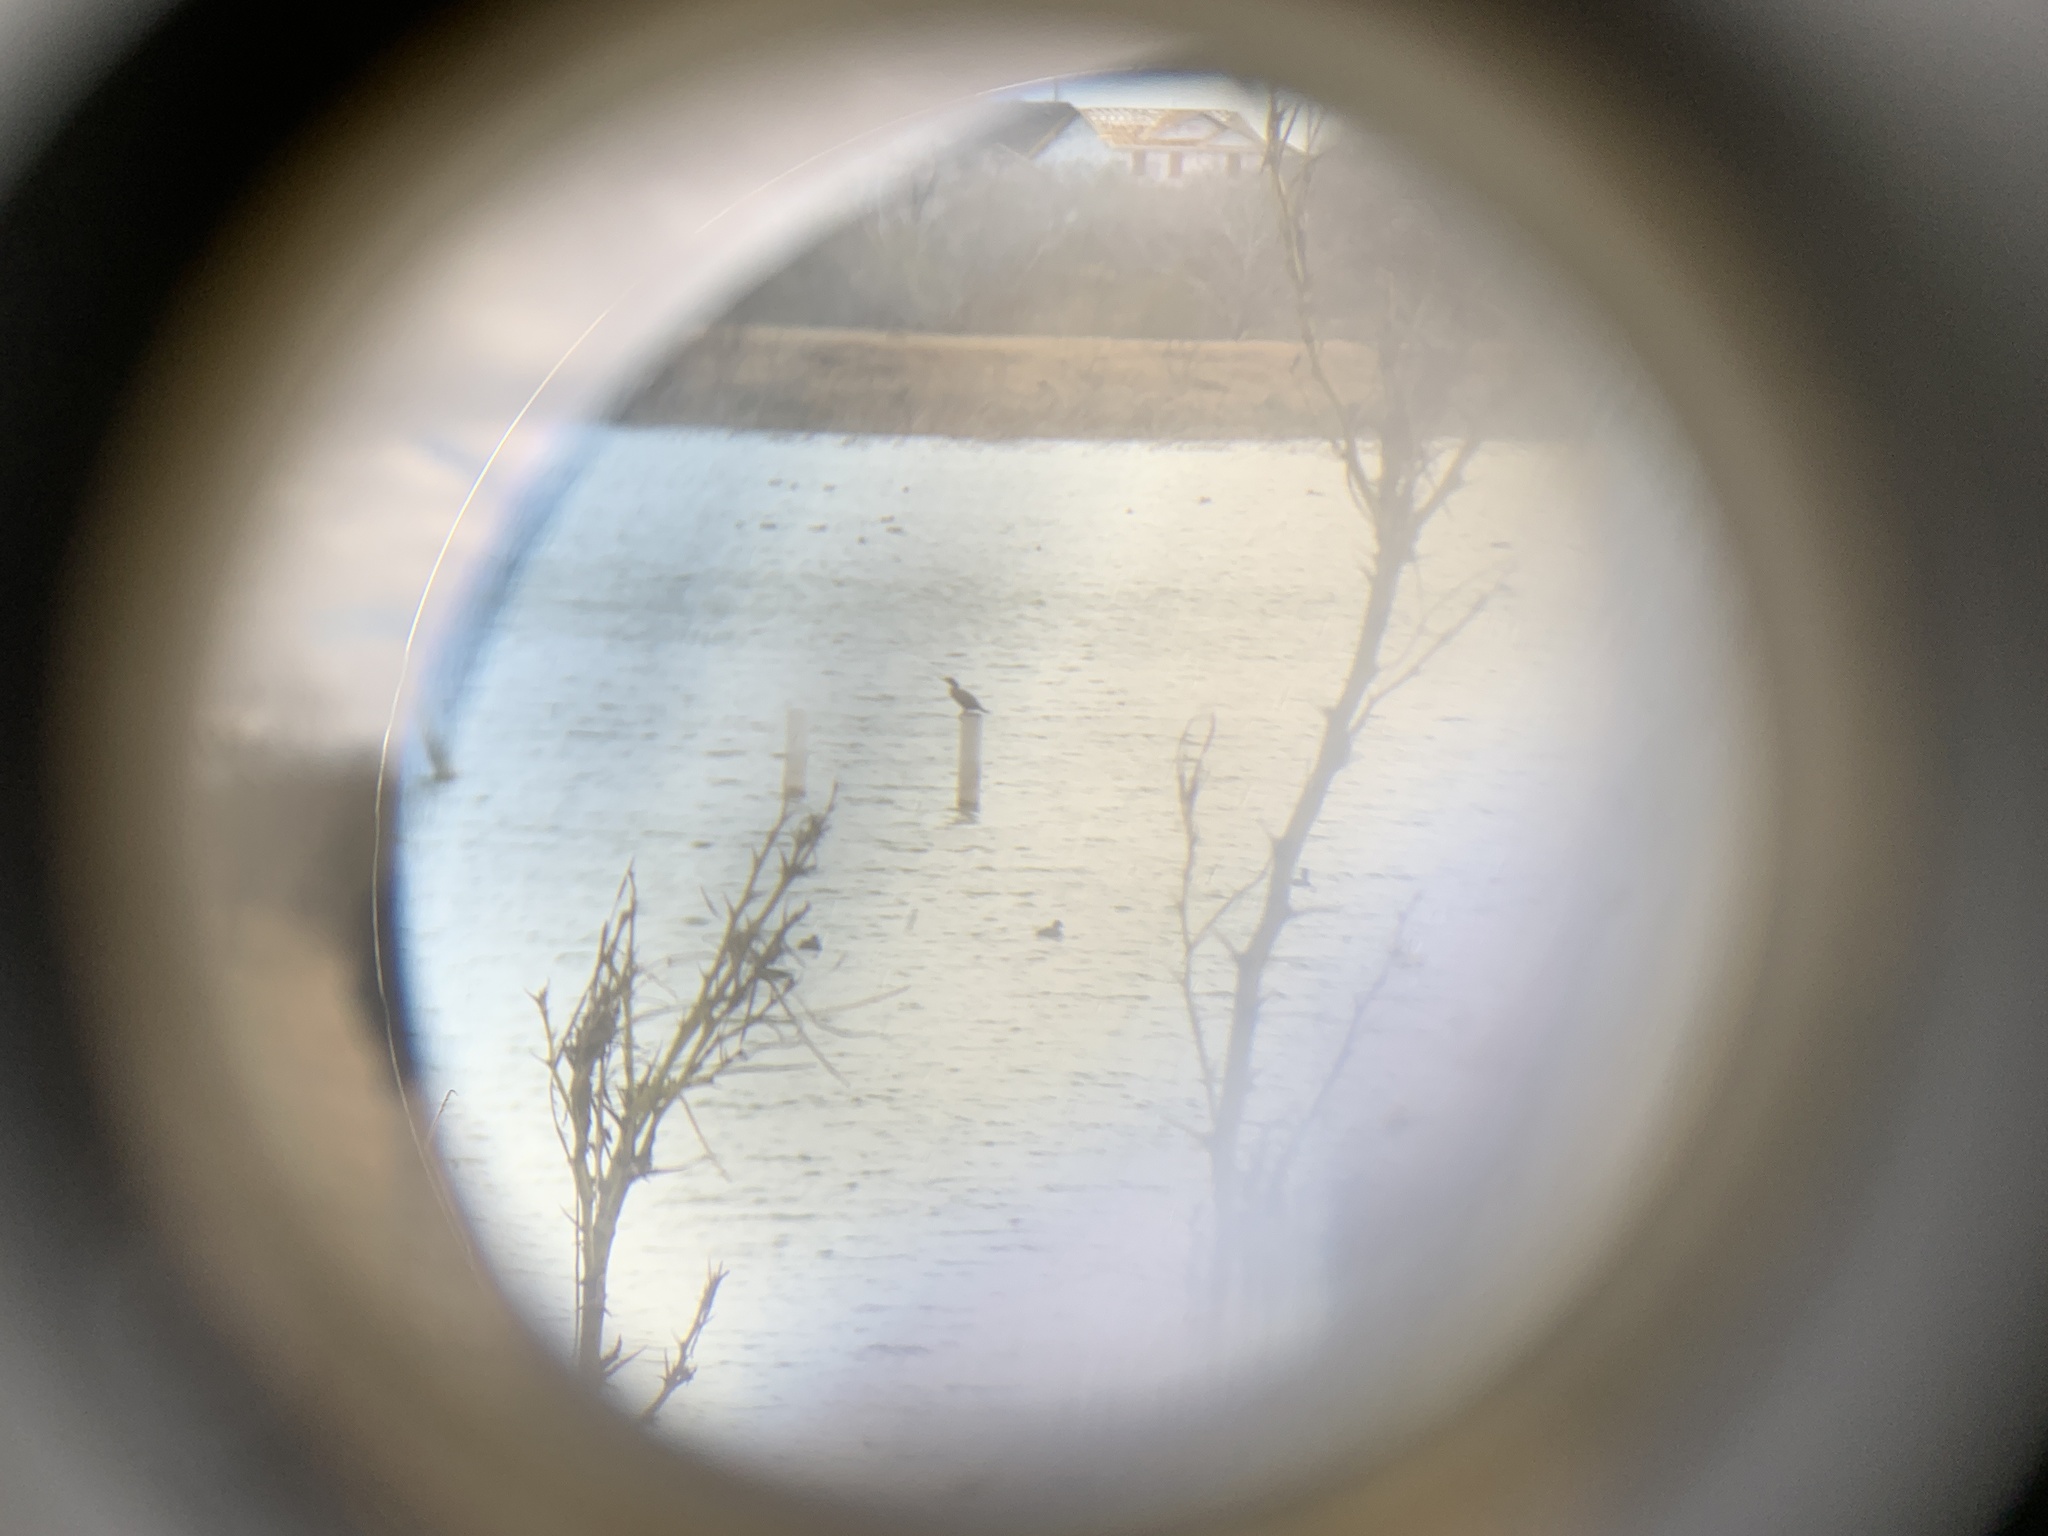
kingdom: Animalia
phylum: Chordata
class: Aves
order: Suliformes
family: Phalacrocoracidae
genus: Phalacrocorax
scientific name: Phalacrocorax brasilianus
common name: Neotropic cormorant
